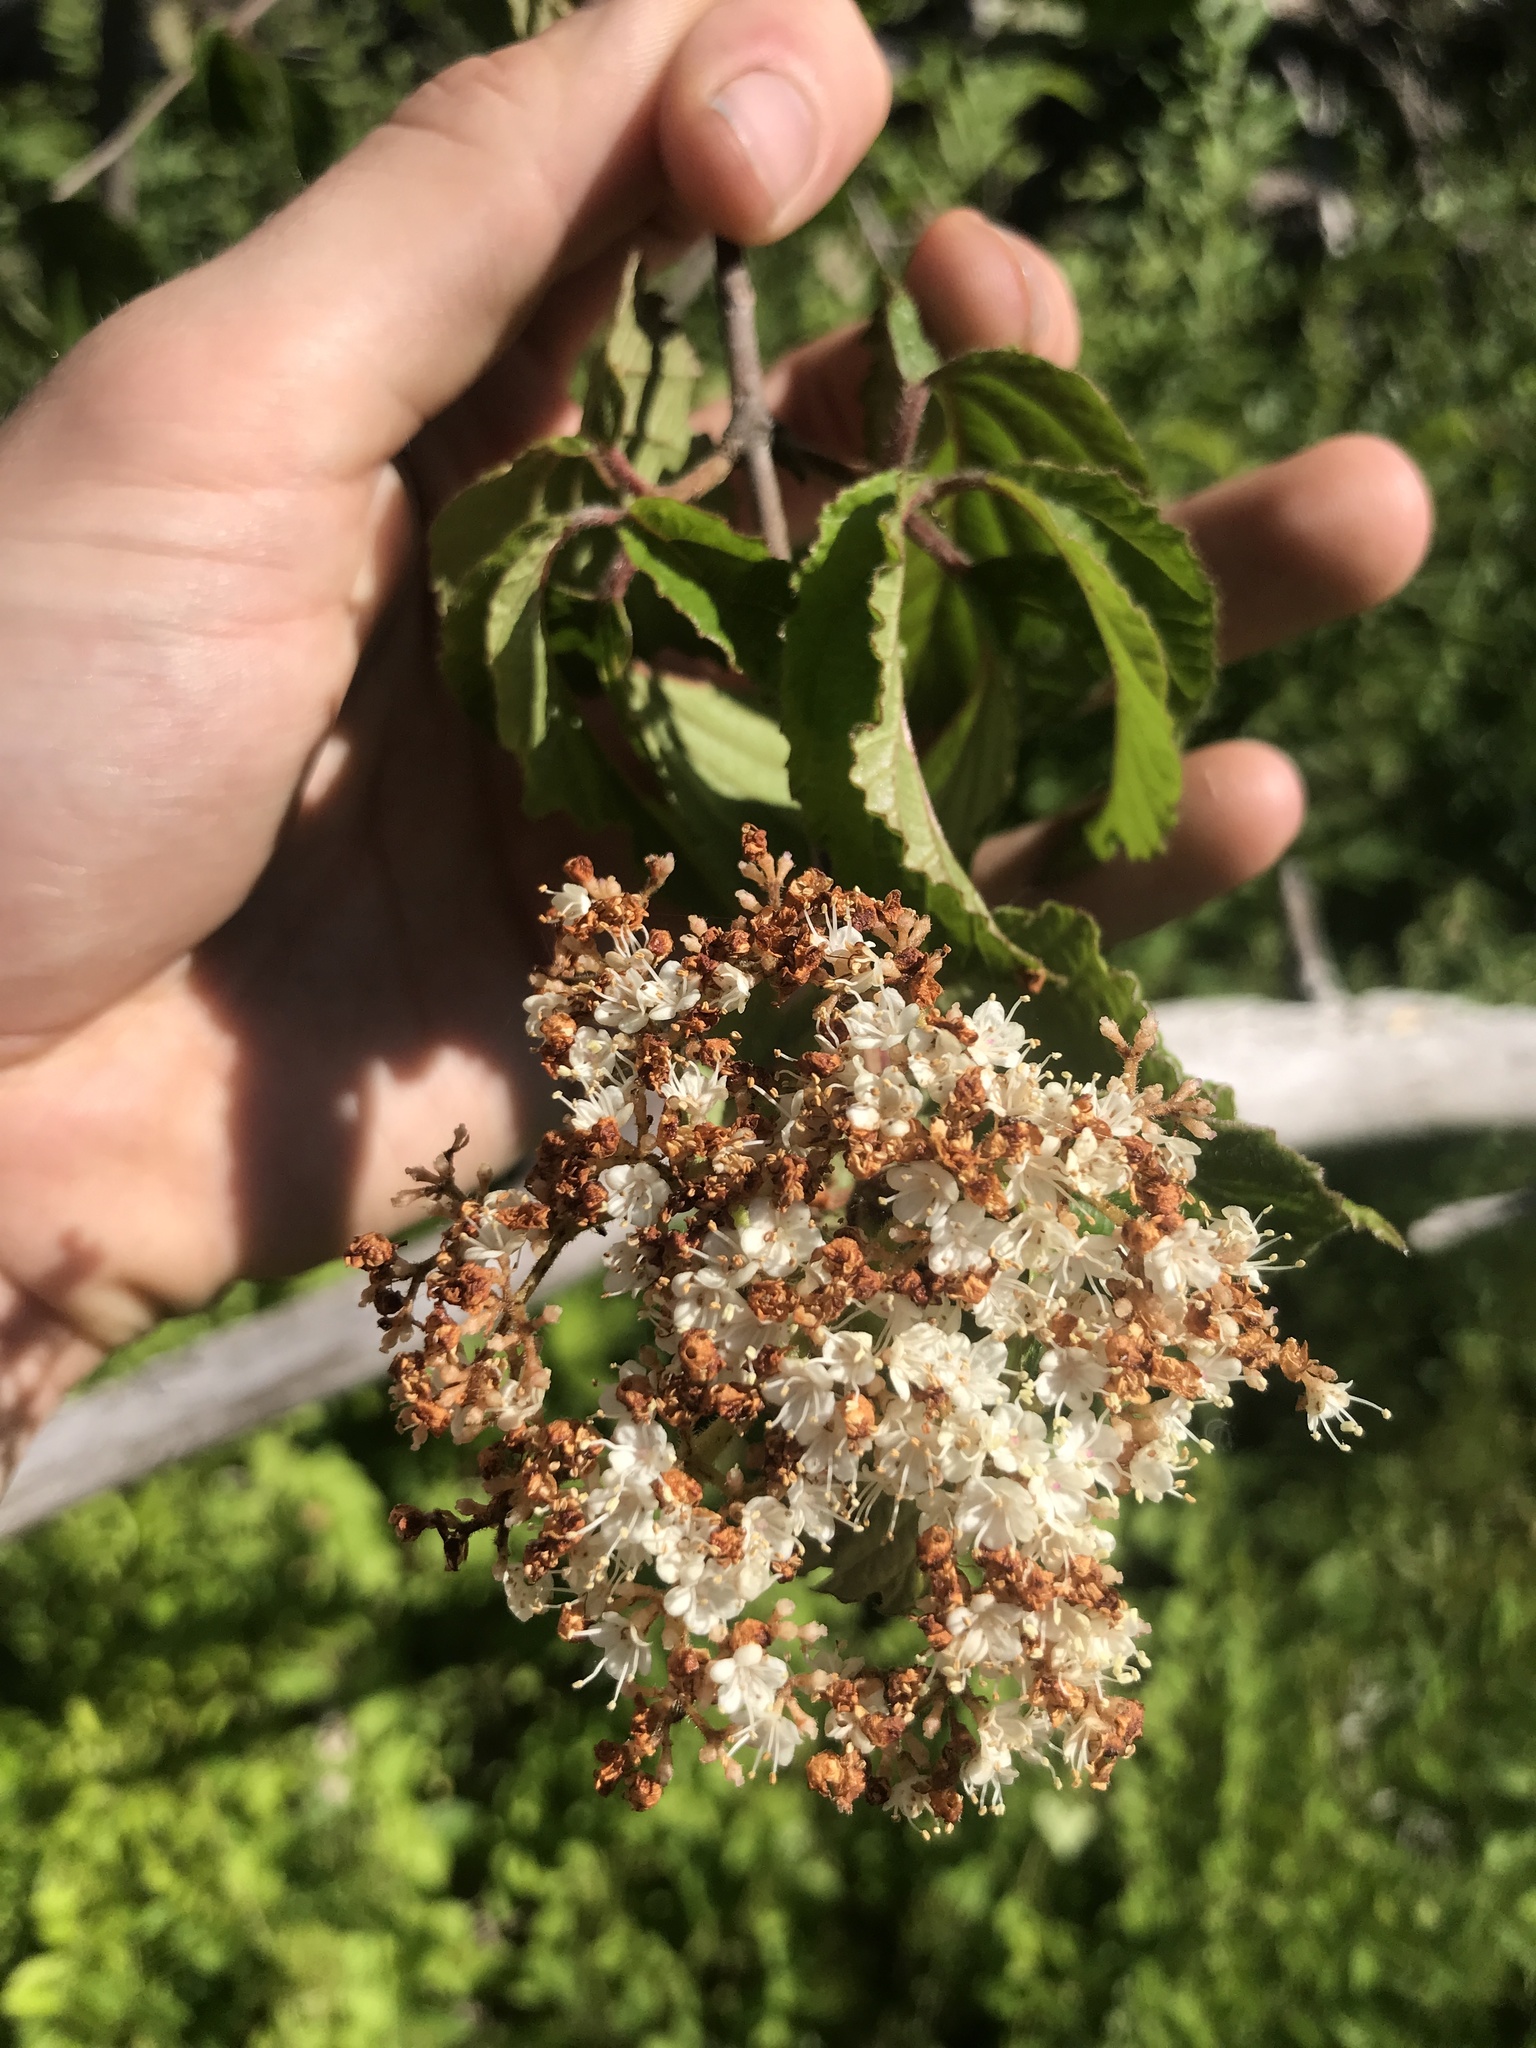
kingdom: Plantae
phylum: Tracheophyta
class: Magnoliopsida
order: Dipsacales
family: Viburnaceae
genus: Viburnum
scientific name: Viburnum dilatatum
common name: Linden arrowwood
